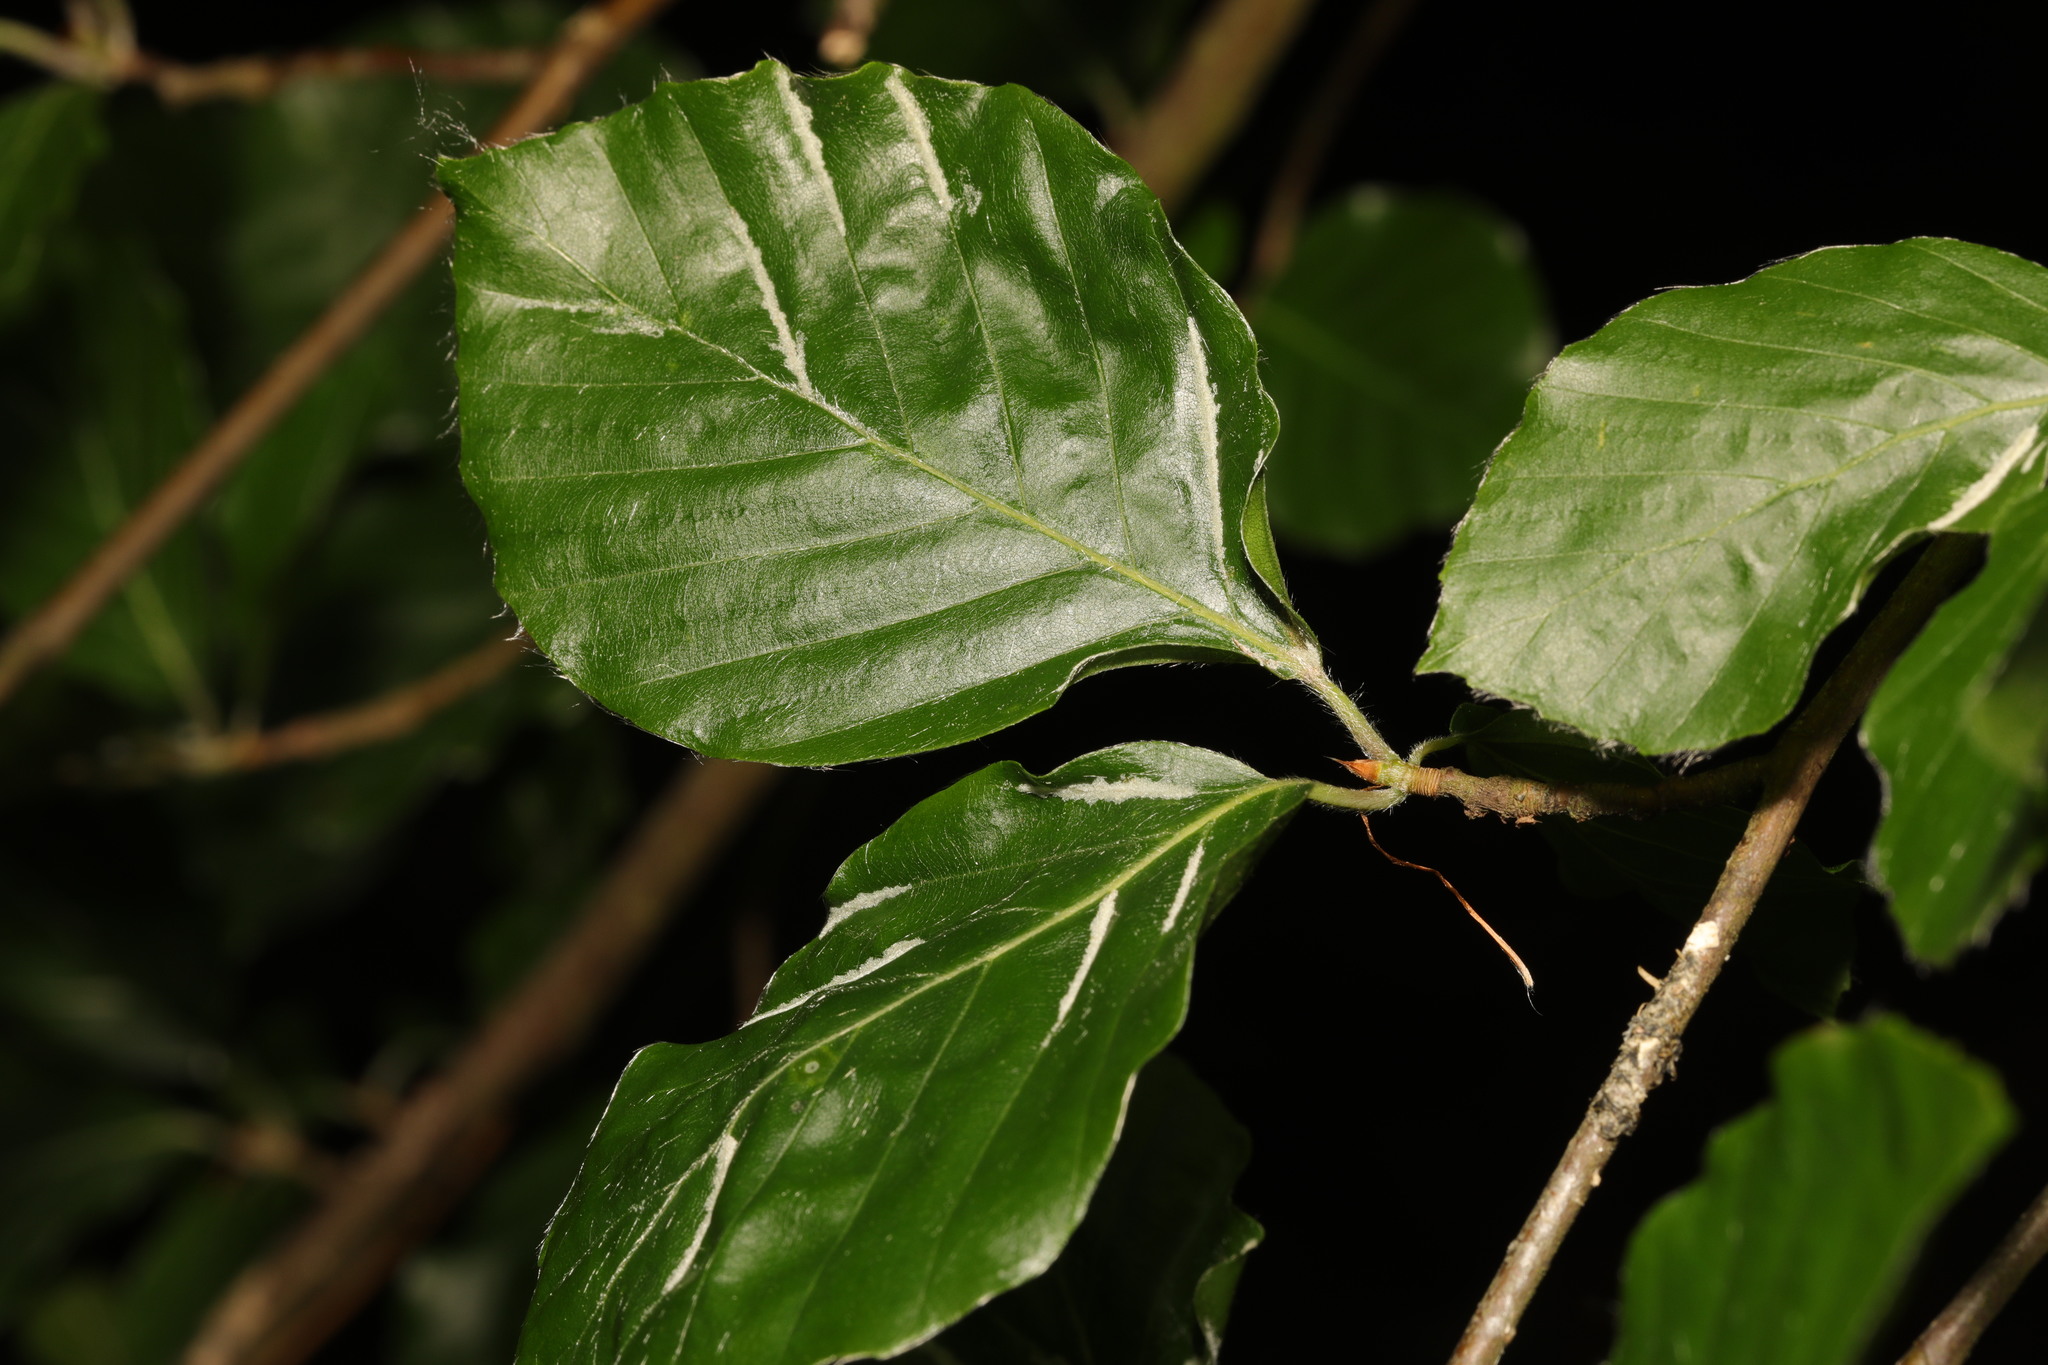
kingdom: Animalia
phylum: Arthropoda
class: Arachnida
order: Trombidiformes
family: Eriophyidae
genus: Aceria
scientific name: Aceria nervisequa
